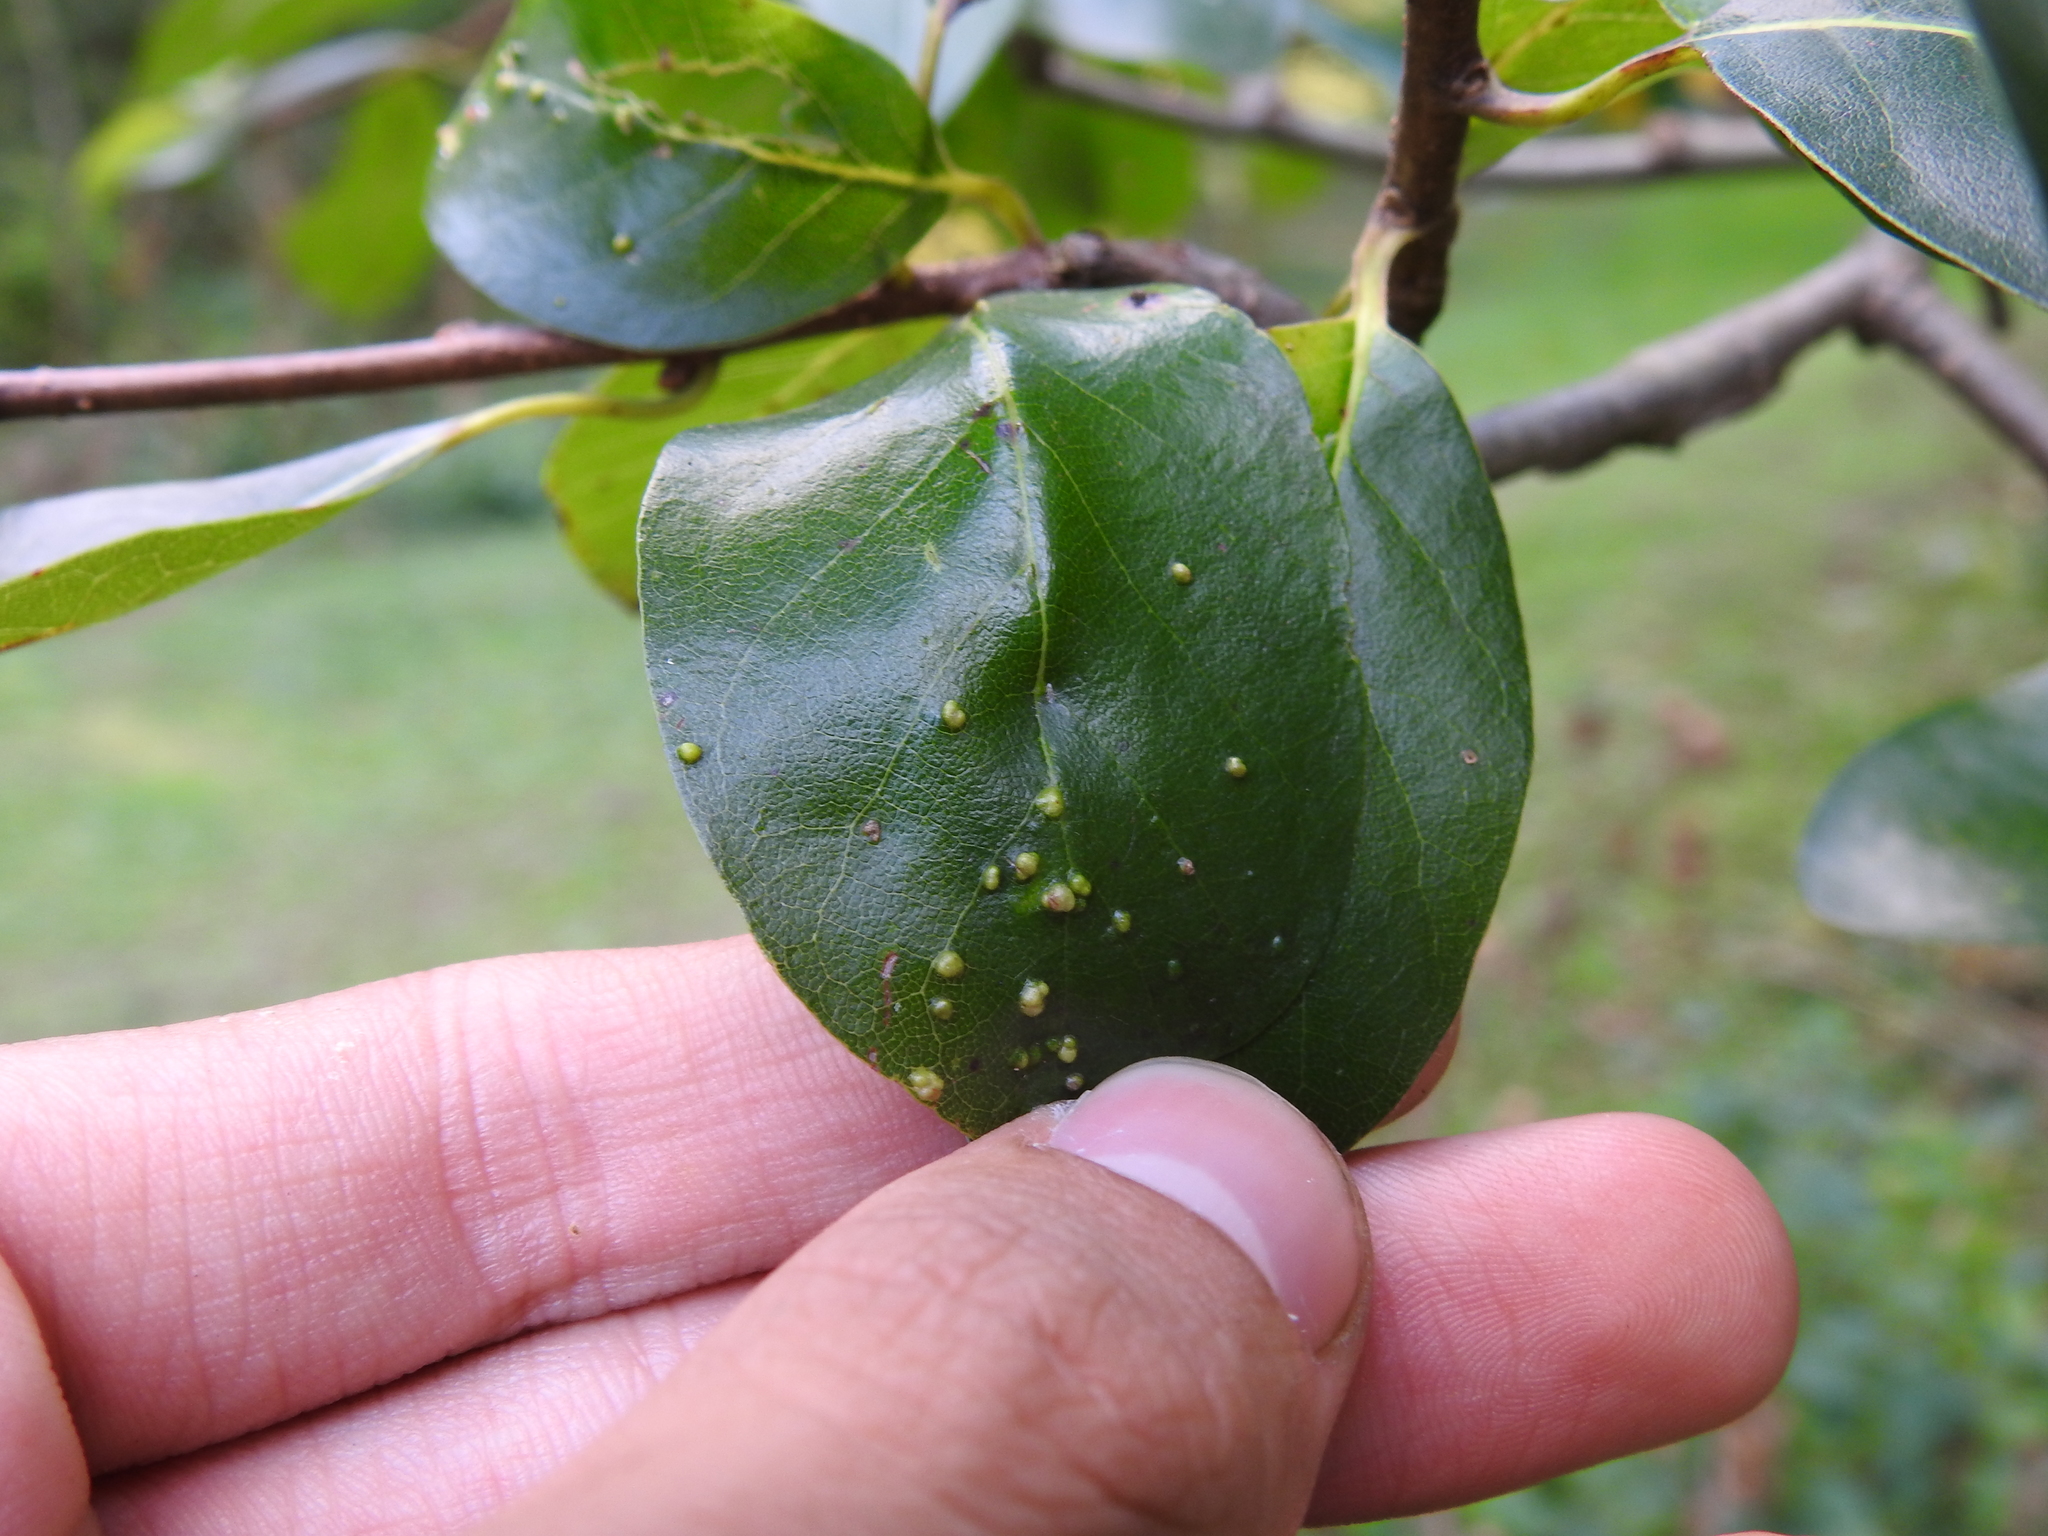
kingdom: Animalia
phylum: Arthropoda
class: Arachnida
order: Trombidiformes
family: Eriophyidae
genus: Aceria
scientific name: Aceria
